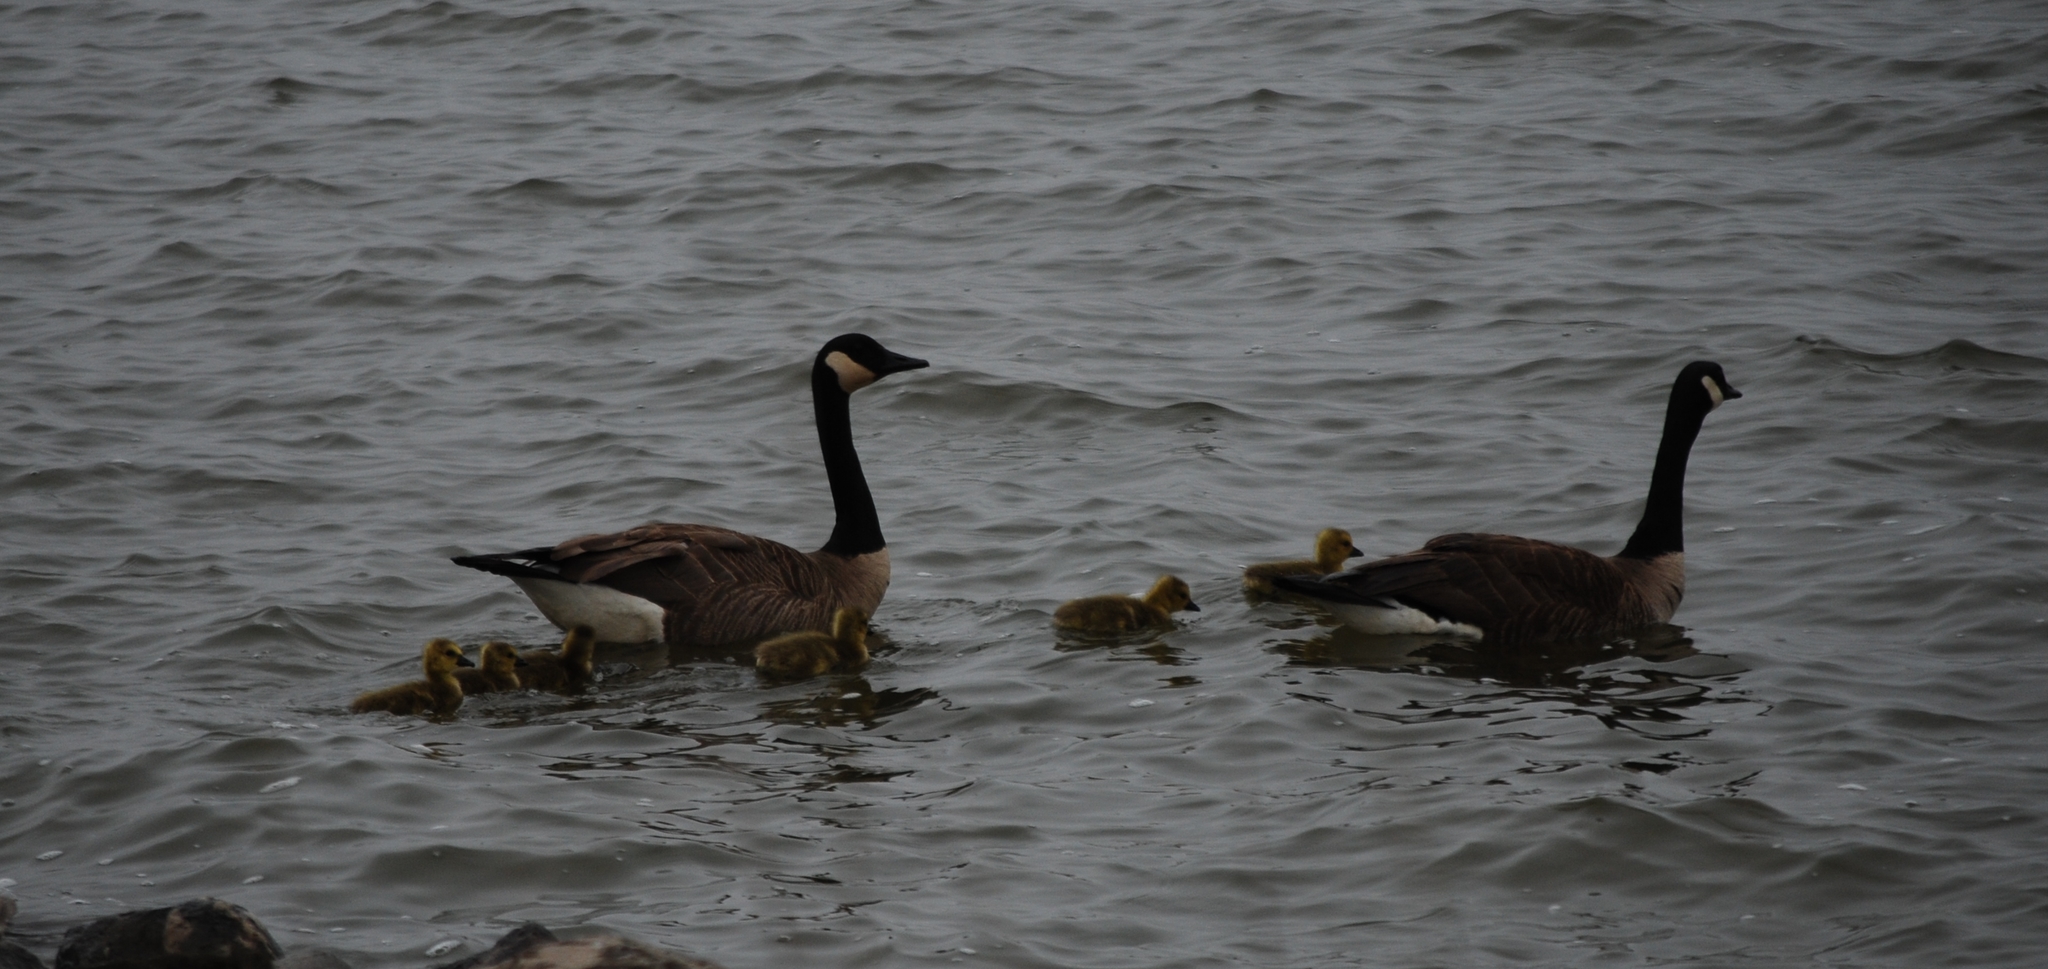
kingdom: Animalia
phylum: Chordata
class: Aves
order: Anseriformes
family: Anatidae
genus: Branta
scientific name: Branta canadensis
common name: Canada goose
